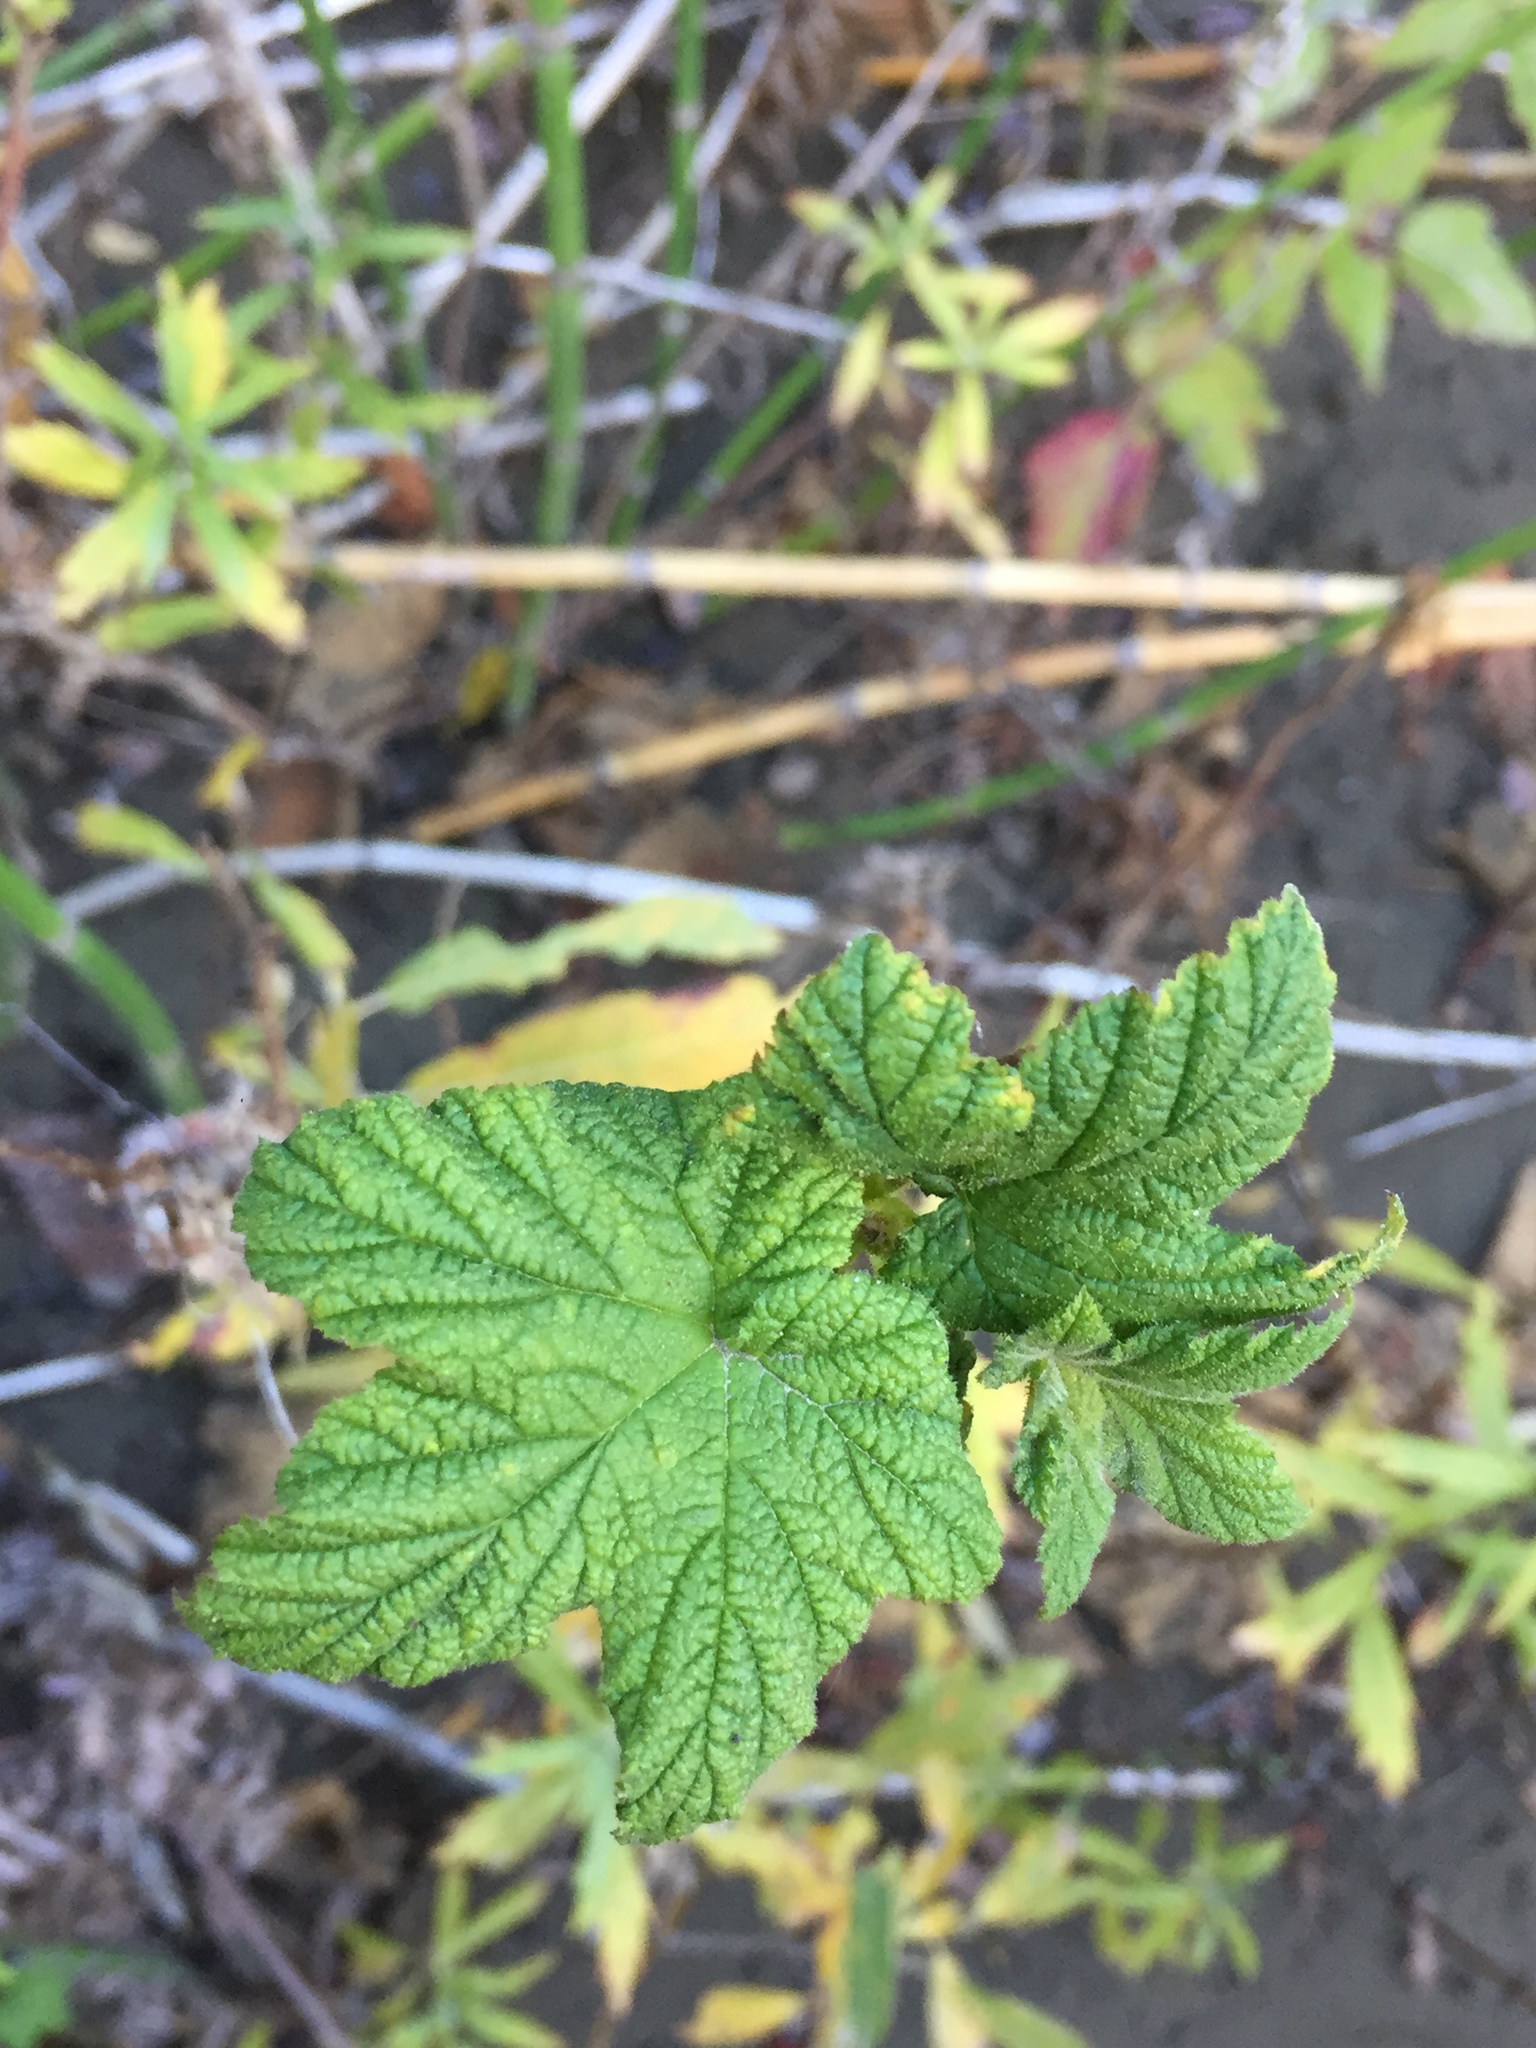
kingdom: Plantae
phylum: Tracheophyta
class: Magnoliopsida
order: Rosales
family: Rosaceae
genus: Rubus
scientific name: Rubus parviflorus
